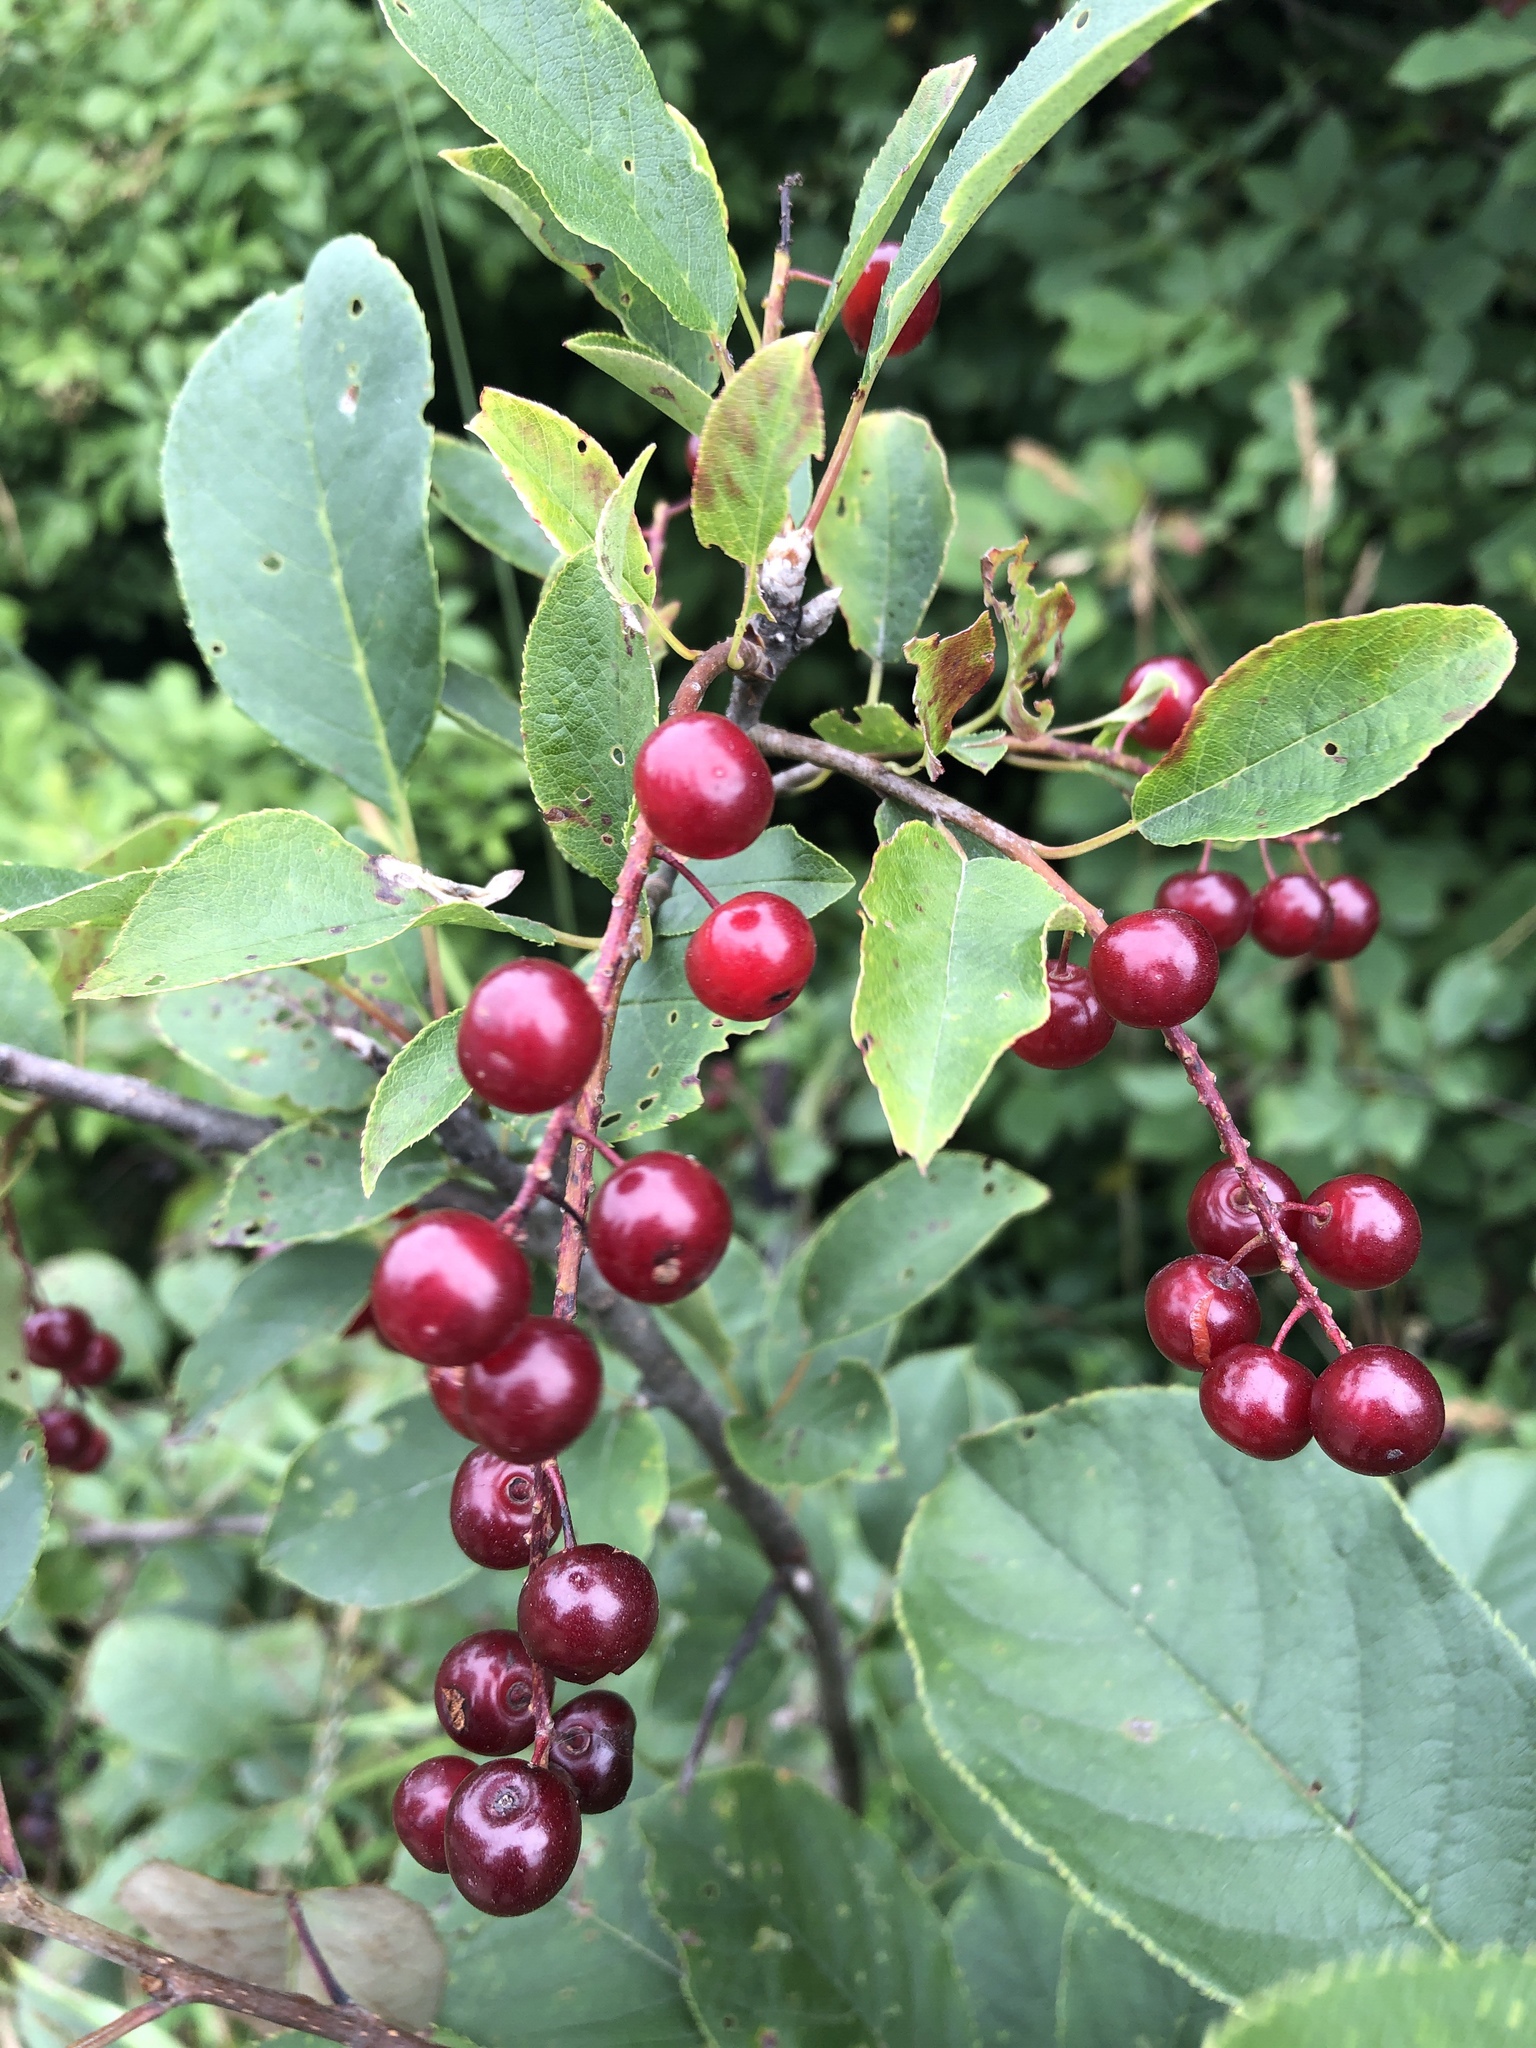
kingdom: Plantae
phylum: Tracheophyta
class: Magnoliopsida
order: Rosales
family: Rosaceae
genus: Prunus
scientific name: Prunus virginiana
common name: Chokecherry
